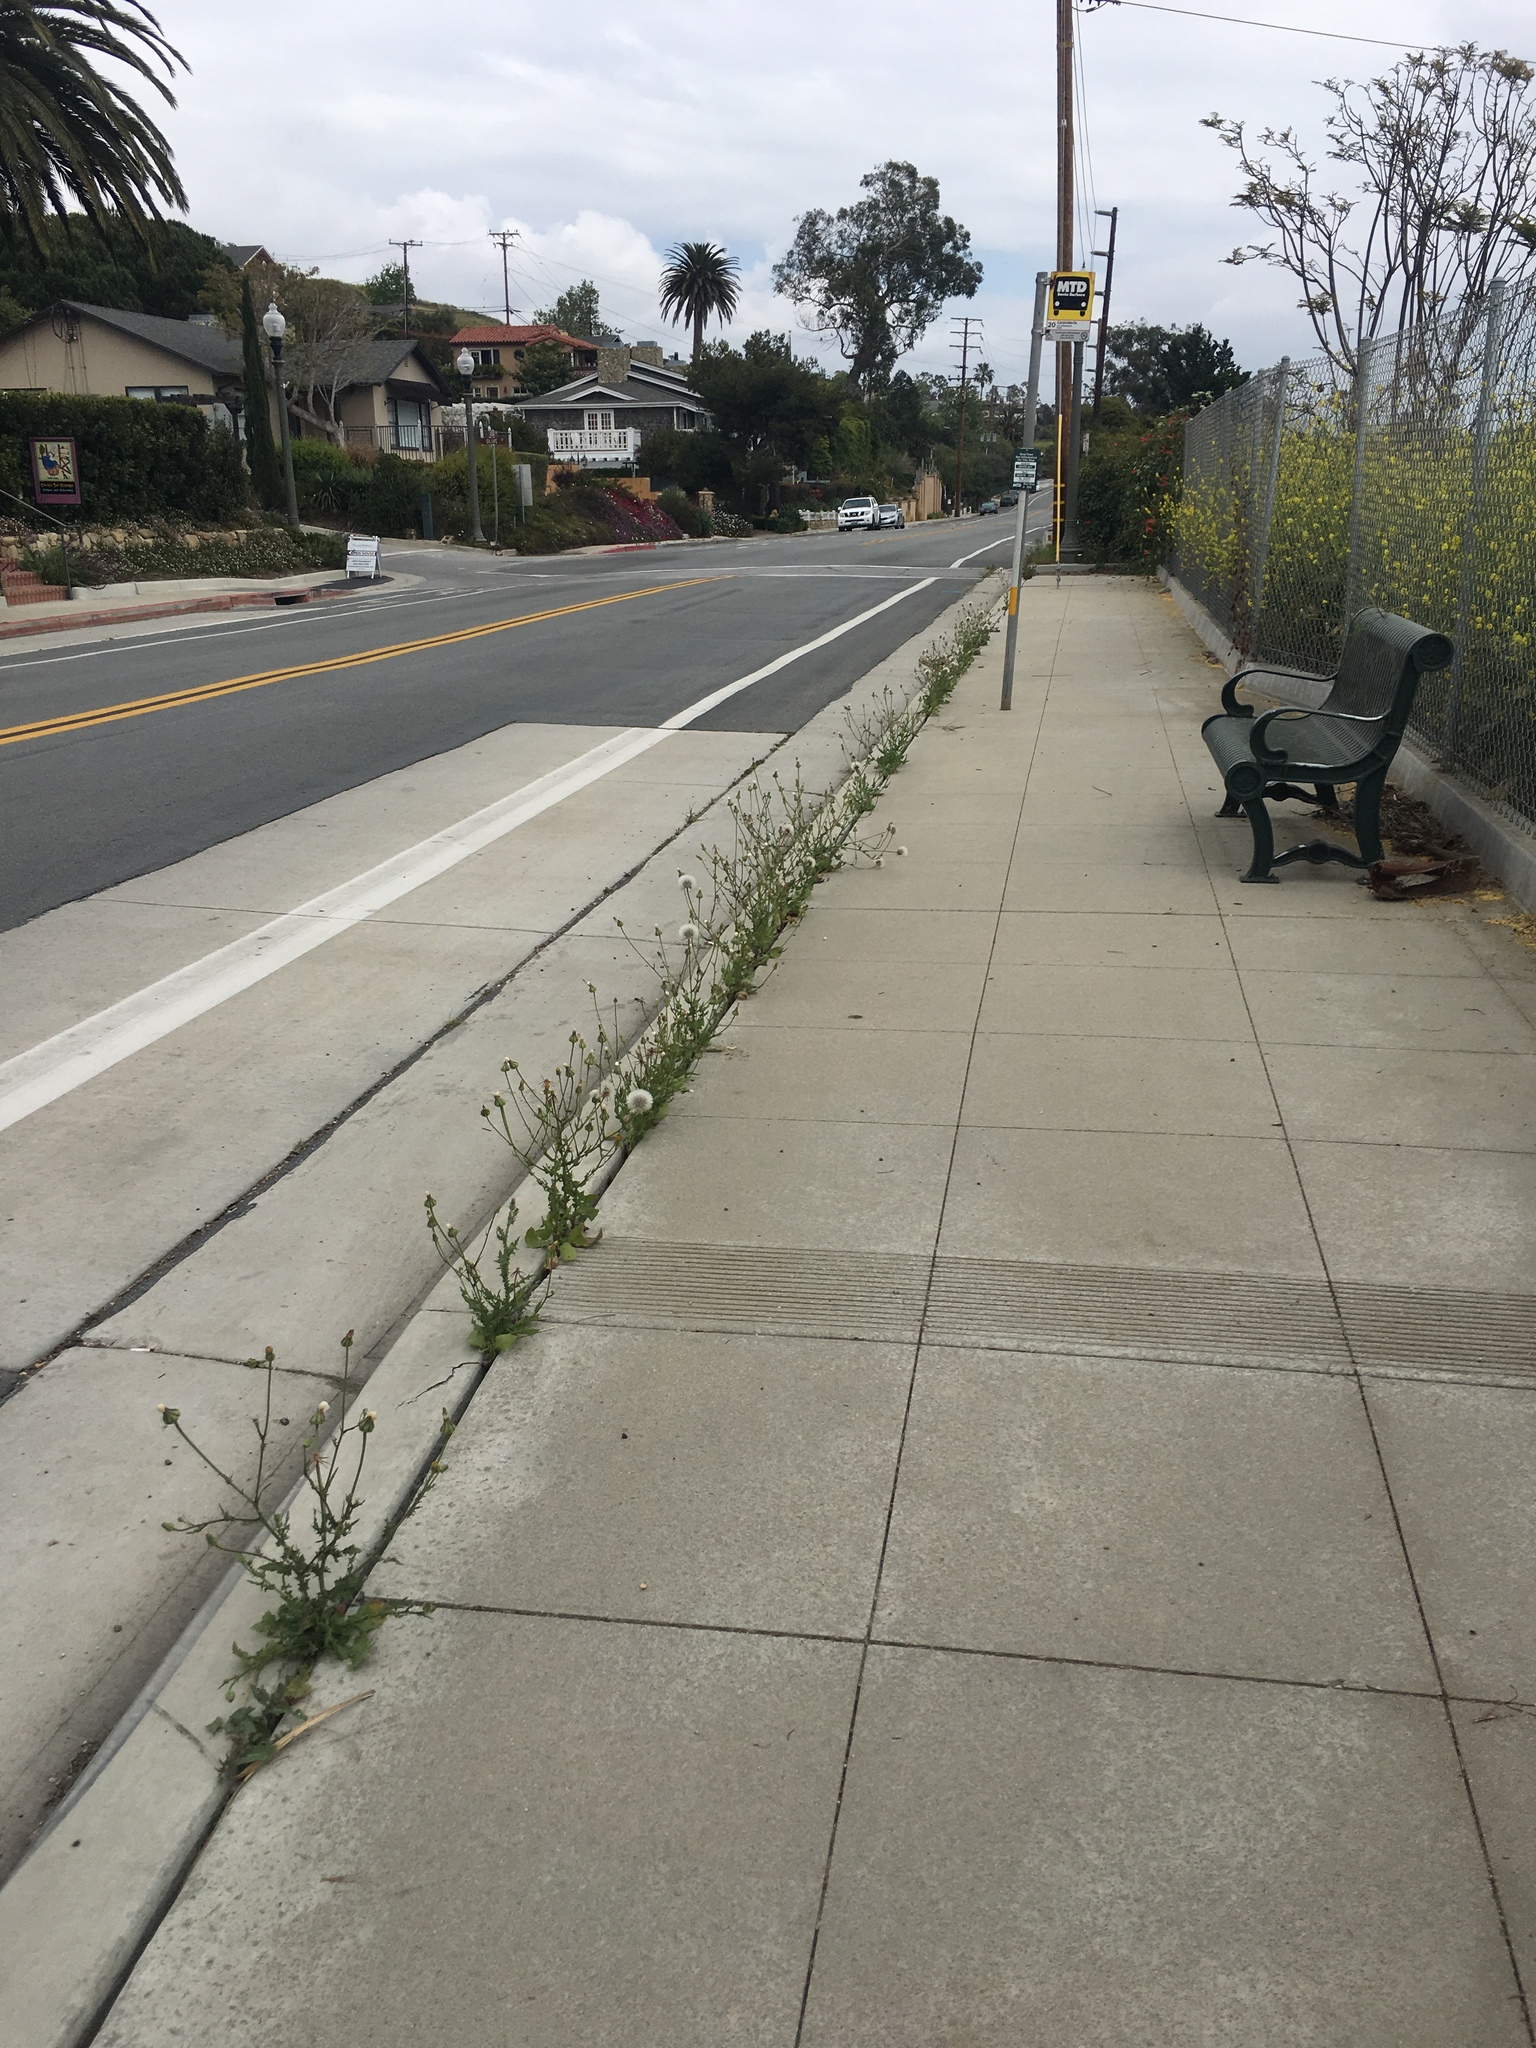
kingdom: Plantae
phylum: Tracheophyta
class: Magnoliopsida
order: Asterales
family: Asteraceae
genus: Urospermum
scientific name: Urospermum picroides
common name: False hawkbit
